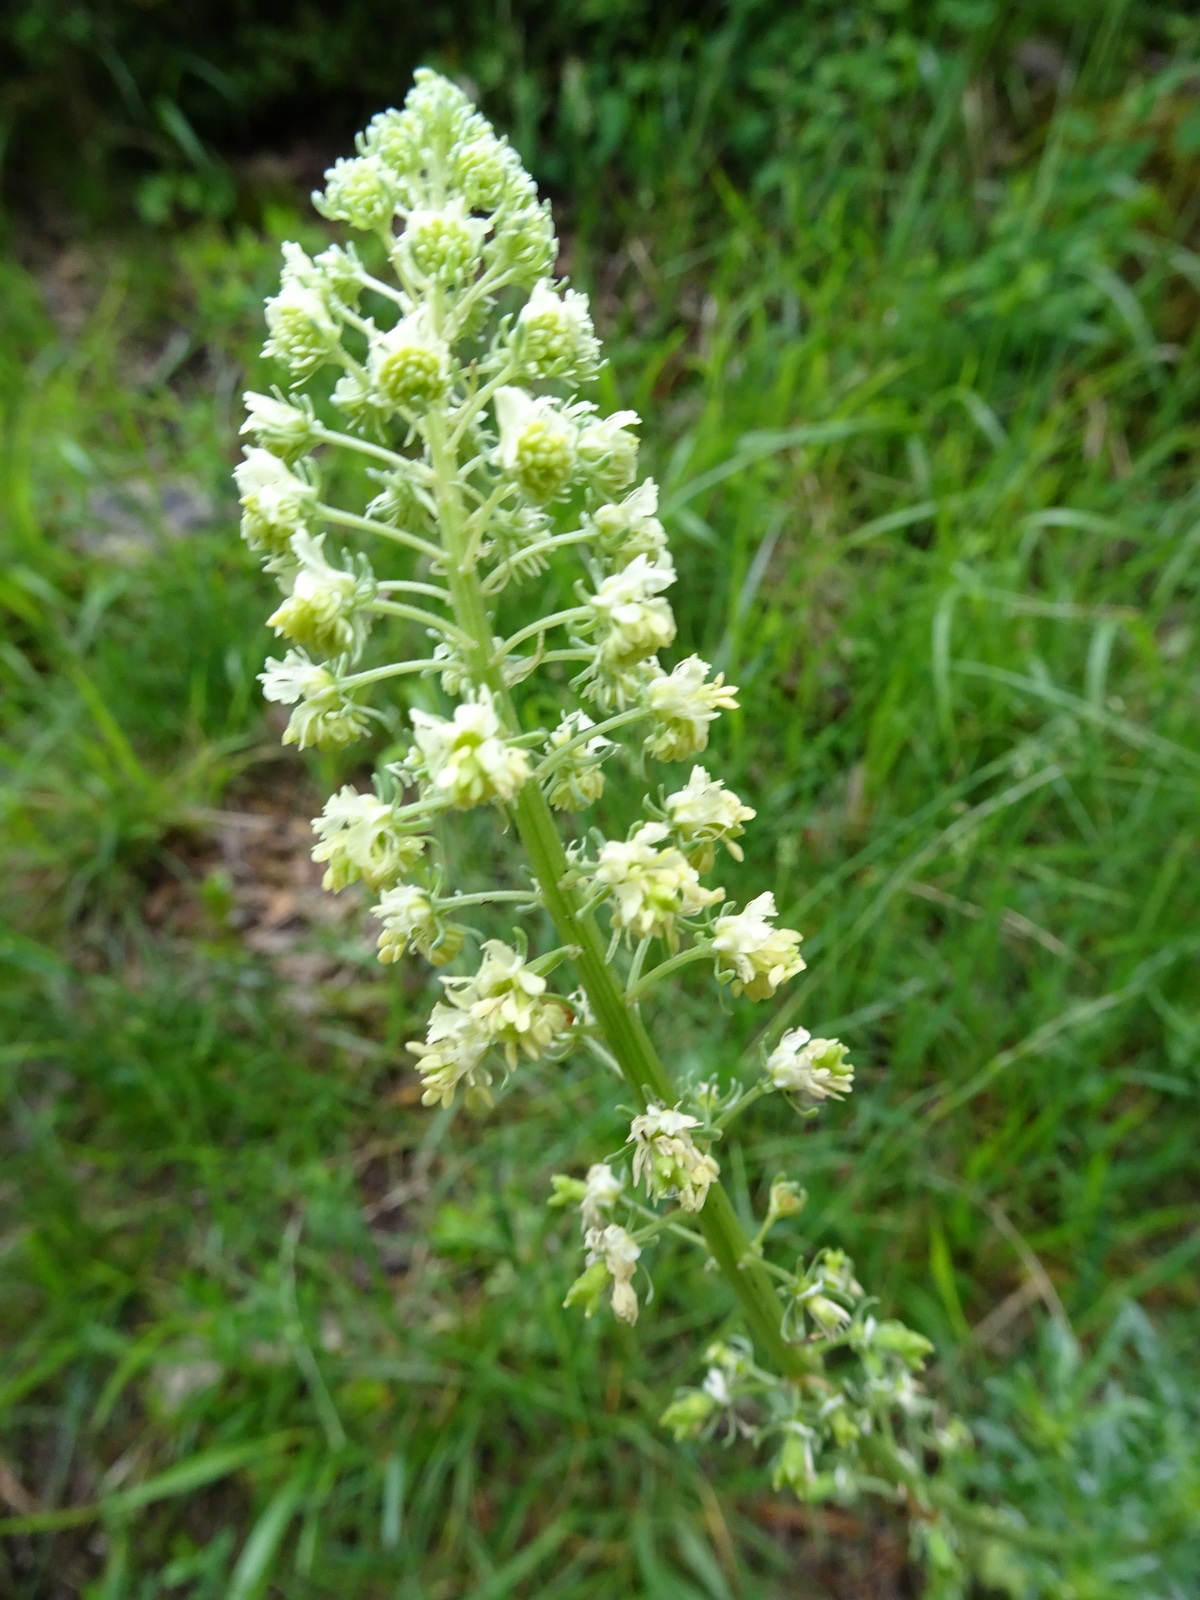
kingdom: Plantae
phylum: Tracheophyta
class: Magnoliopsida
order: Brassicales
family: Resedaceae
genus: Reseda
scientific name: Reseda lutea
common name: Wild mignonette
